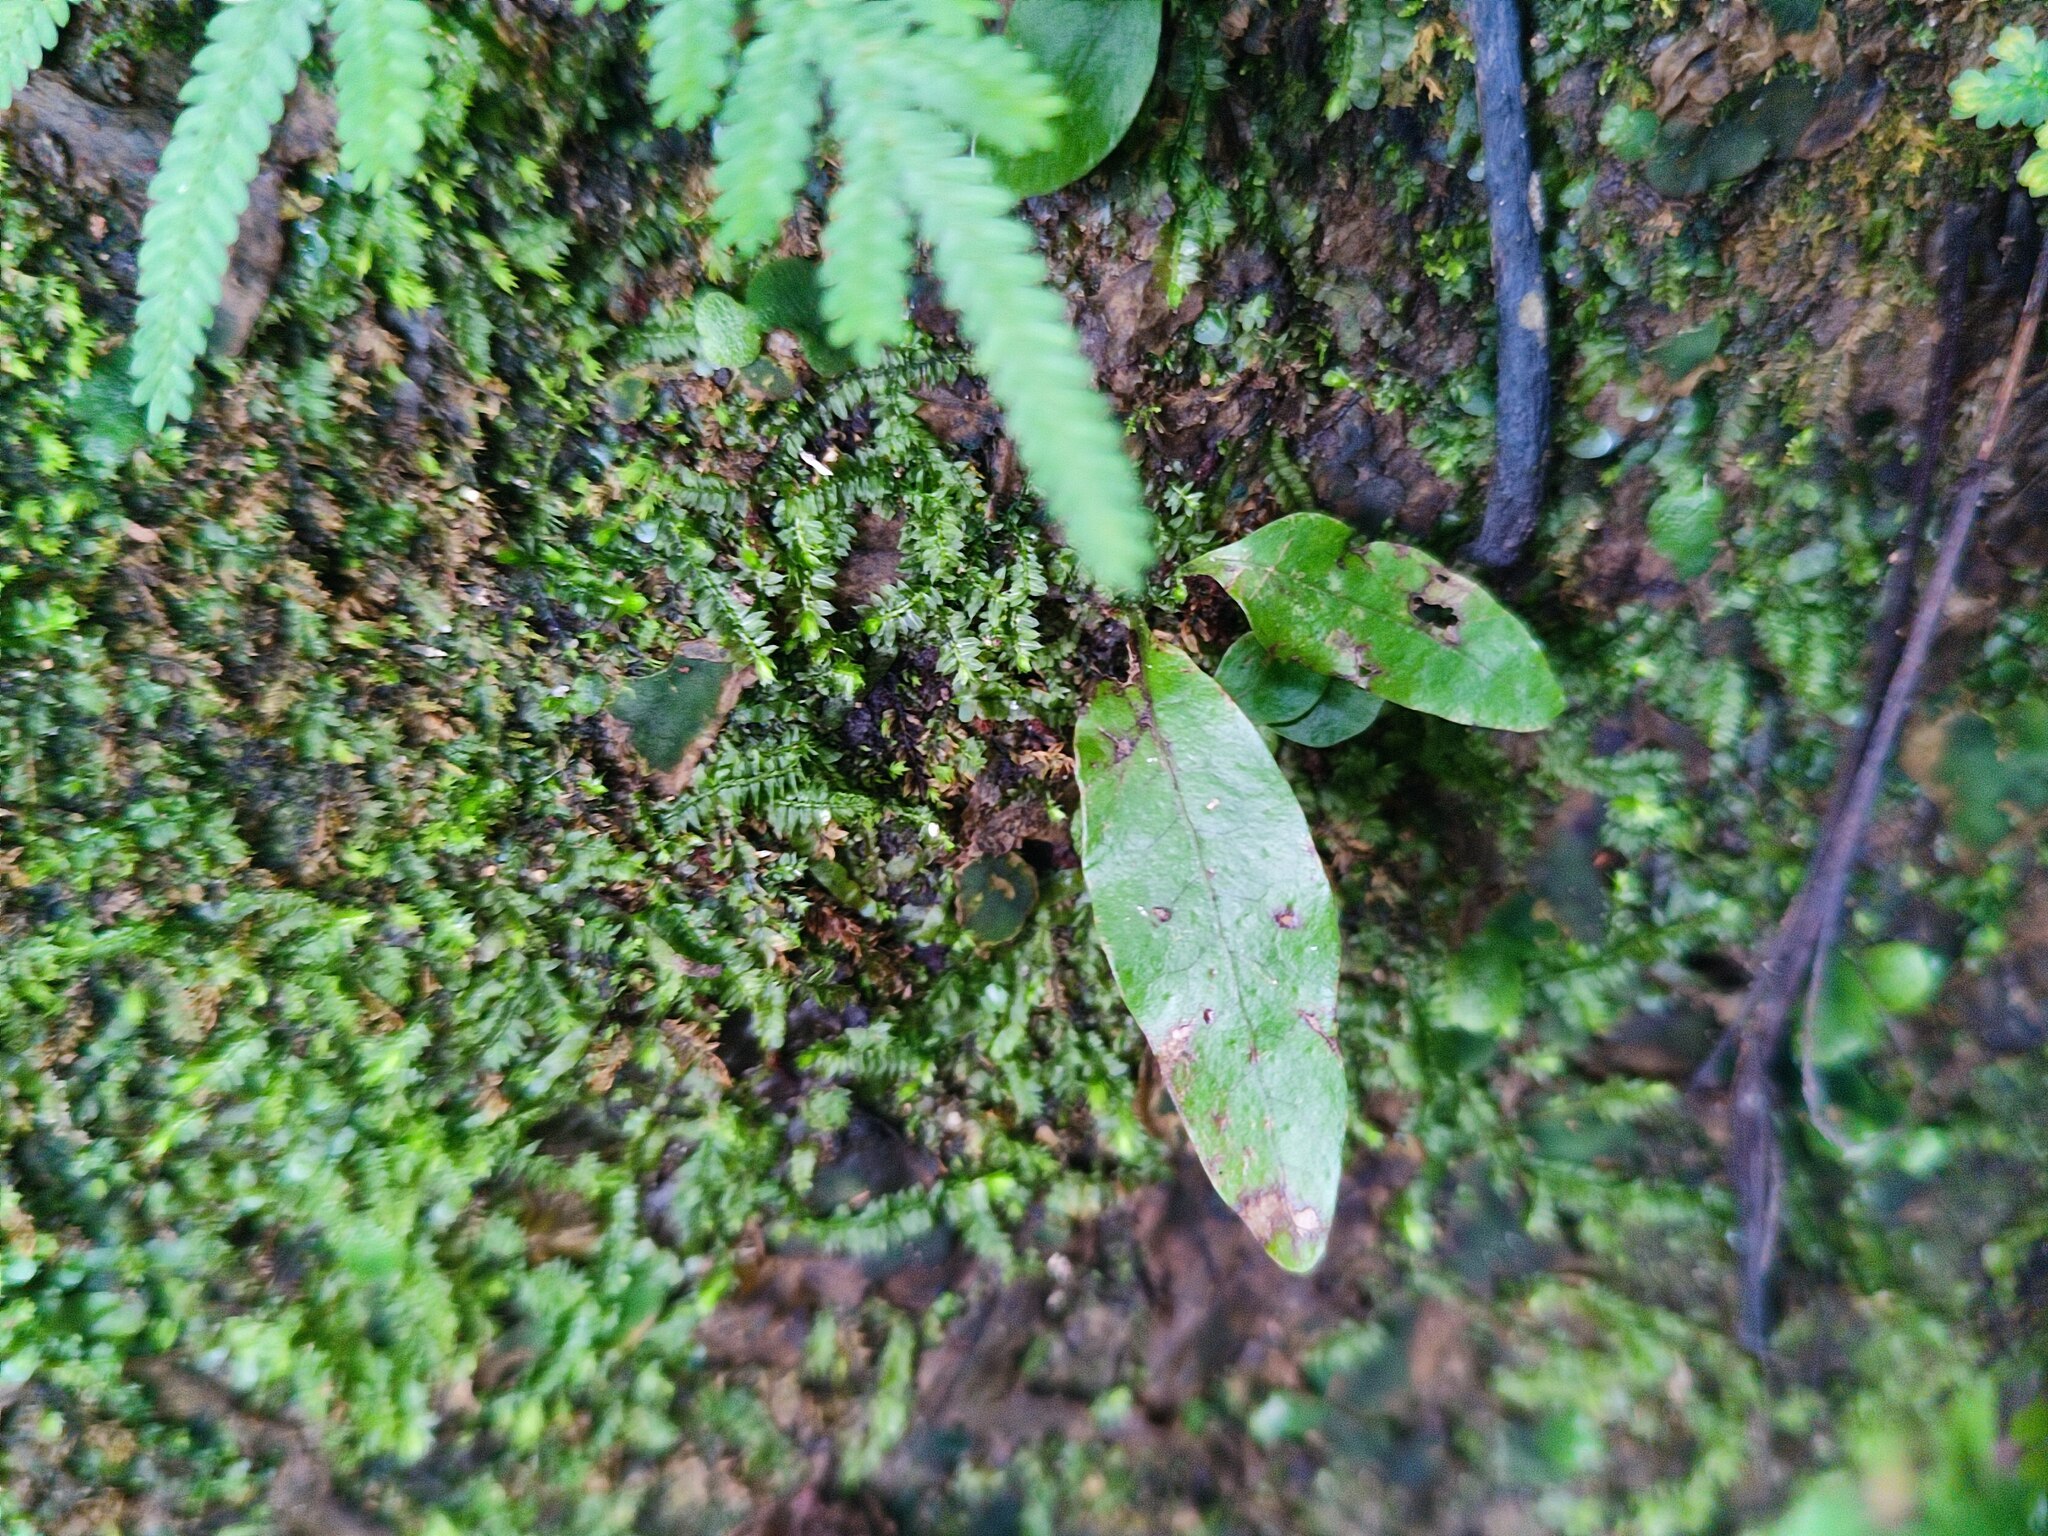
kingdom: Plantae
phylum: Tracheophyta
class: Polypodiopsida
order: Polypodiales
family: Polypodiaceae
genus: Leptochilus
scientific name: Leptochilus wrightii
